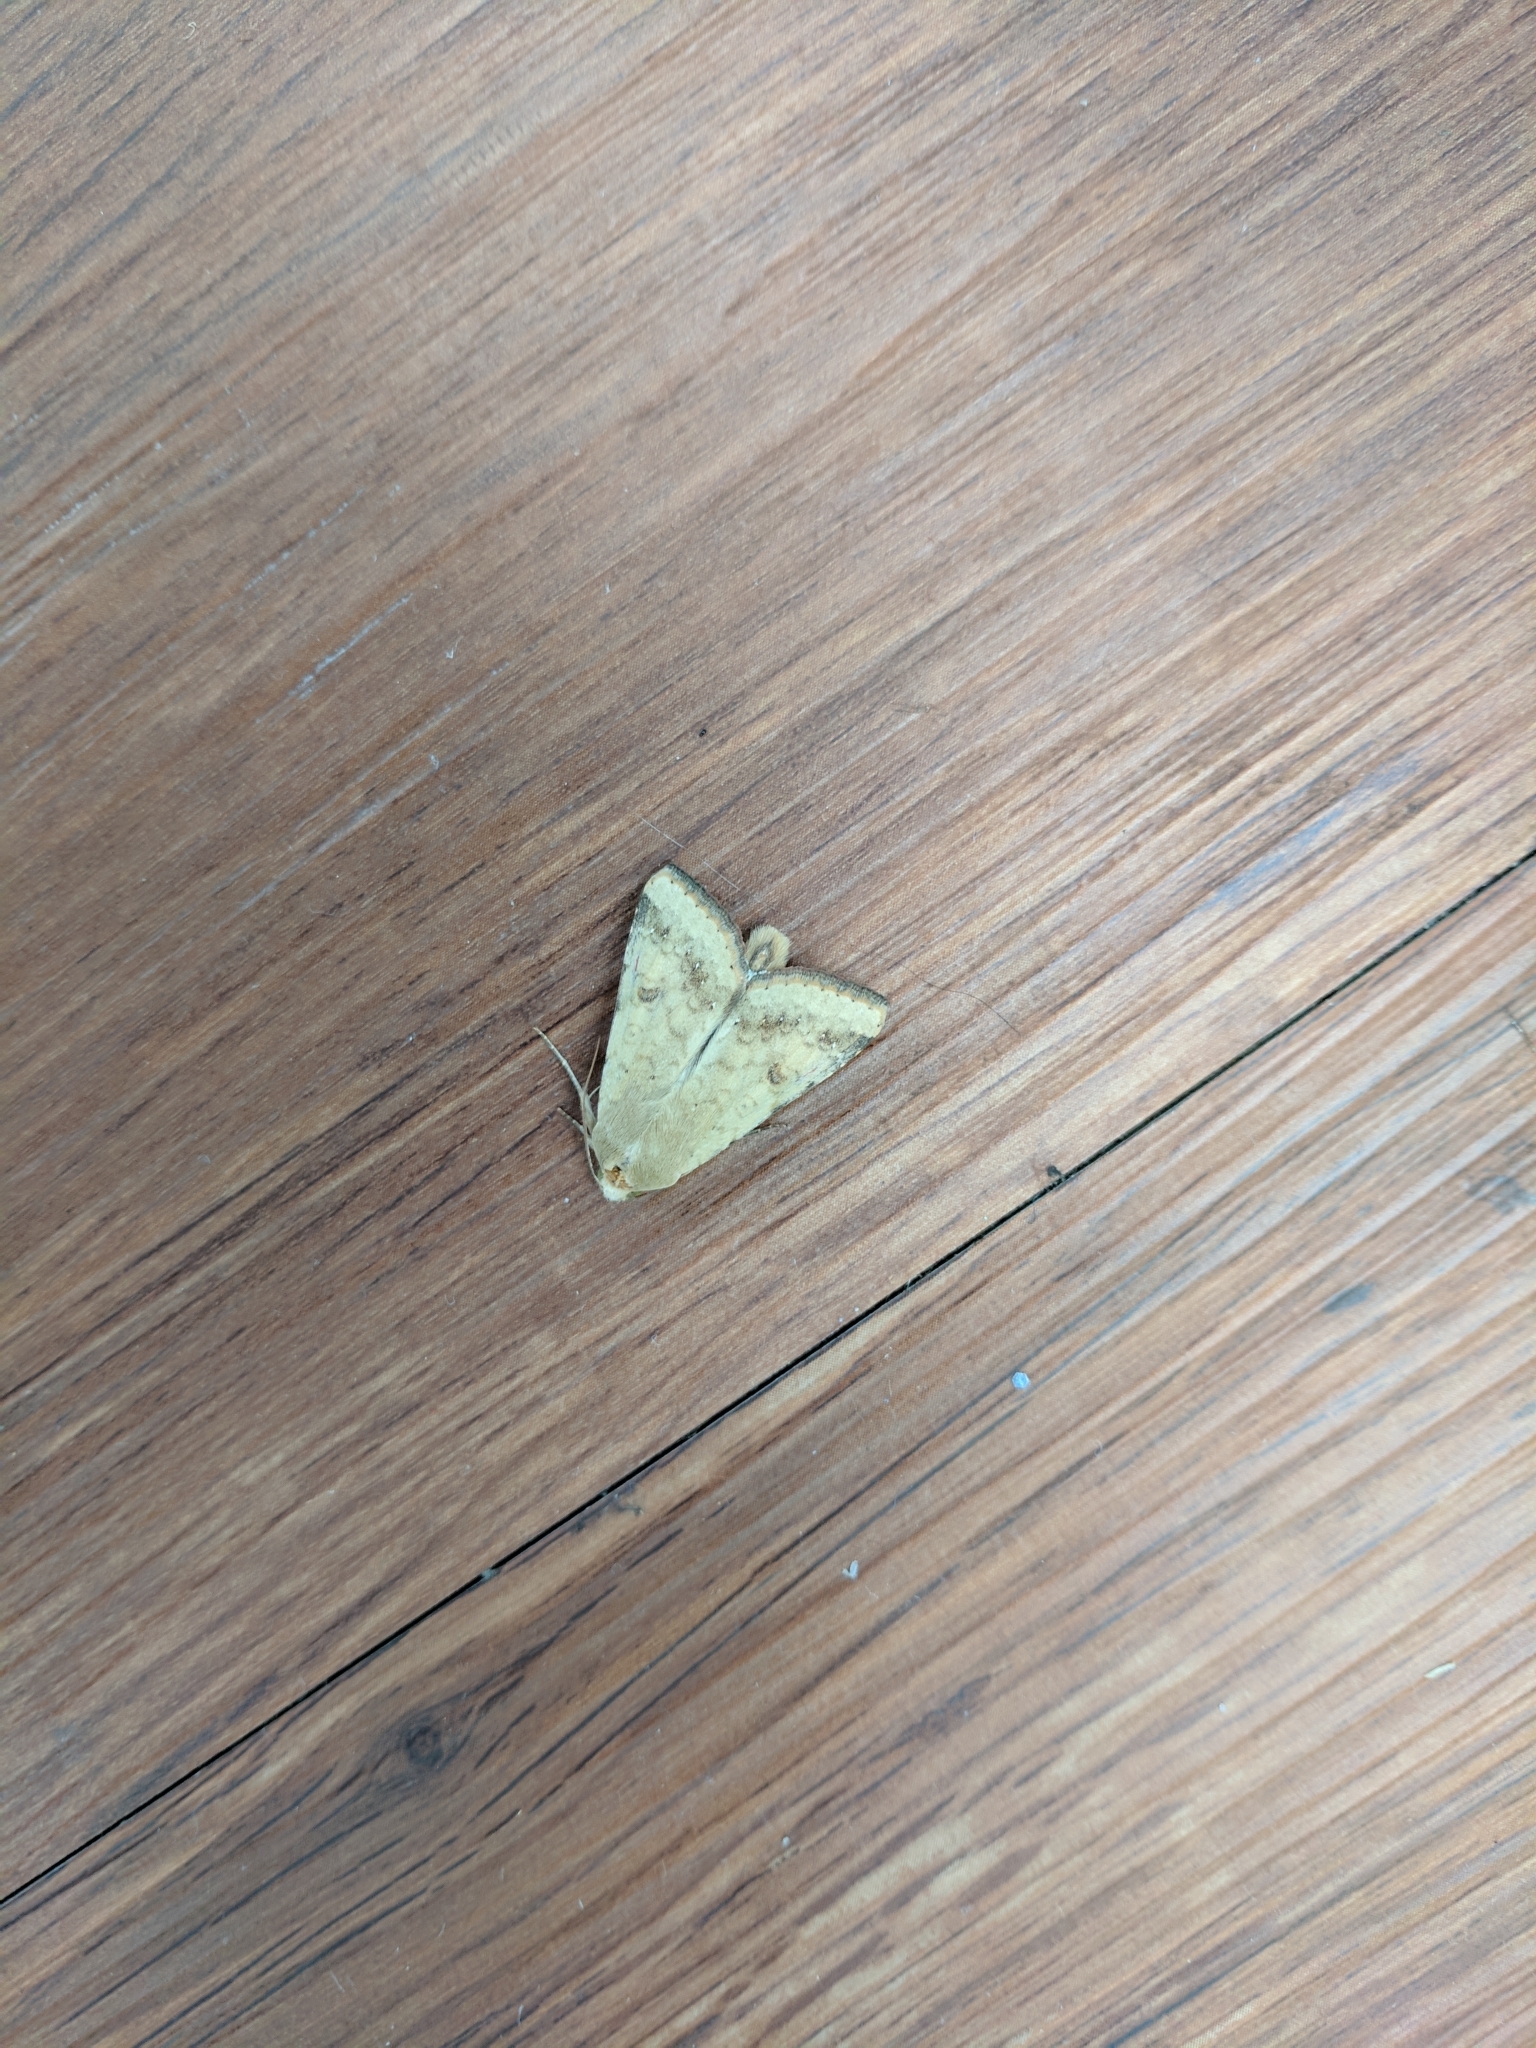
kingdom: Animalia
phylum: Arthropoda
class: Insecta
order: Lepidoptera
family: Noctuidae
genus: Helicoverpa
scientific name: Helicoverpa zea
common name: Bollworm
